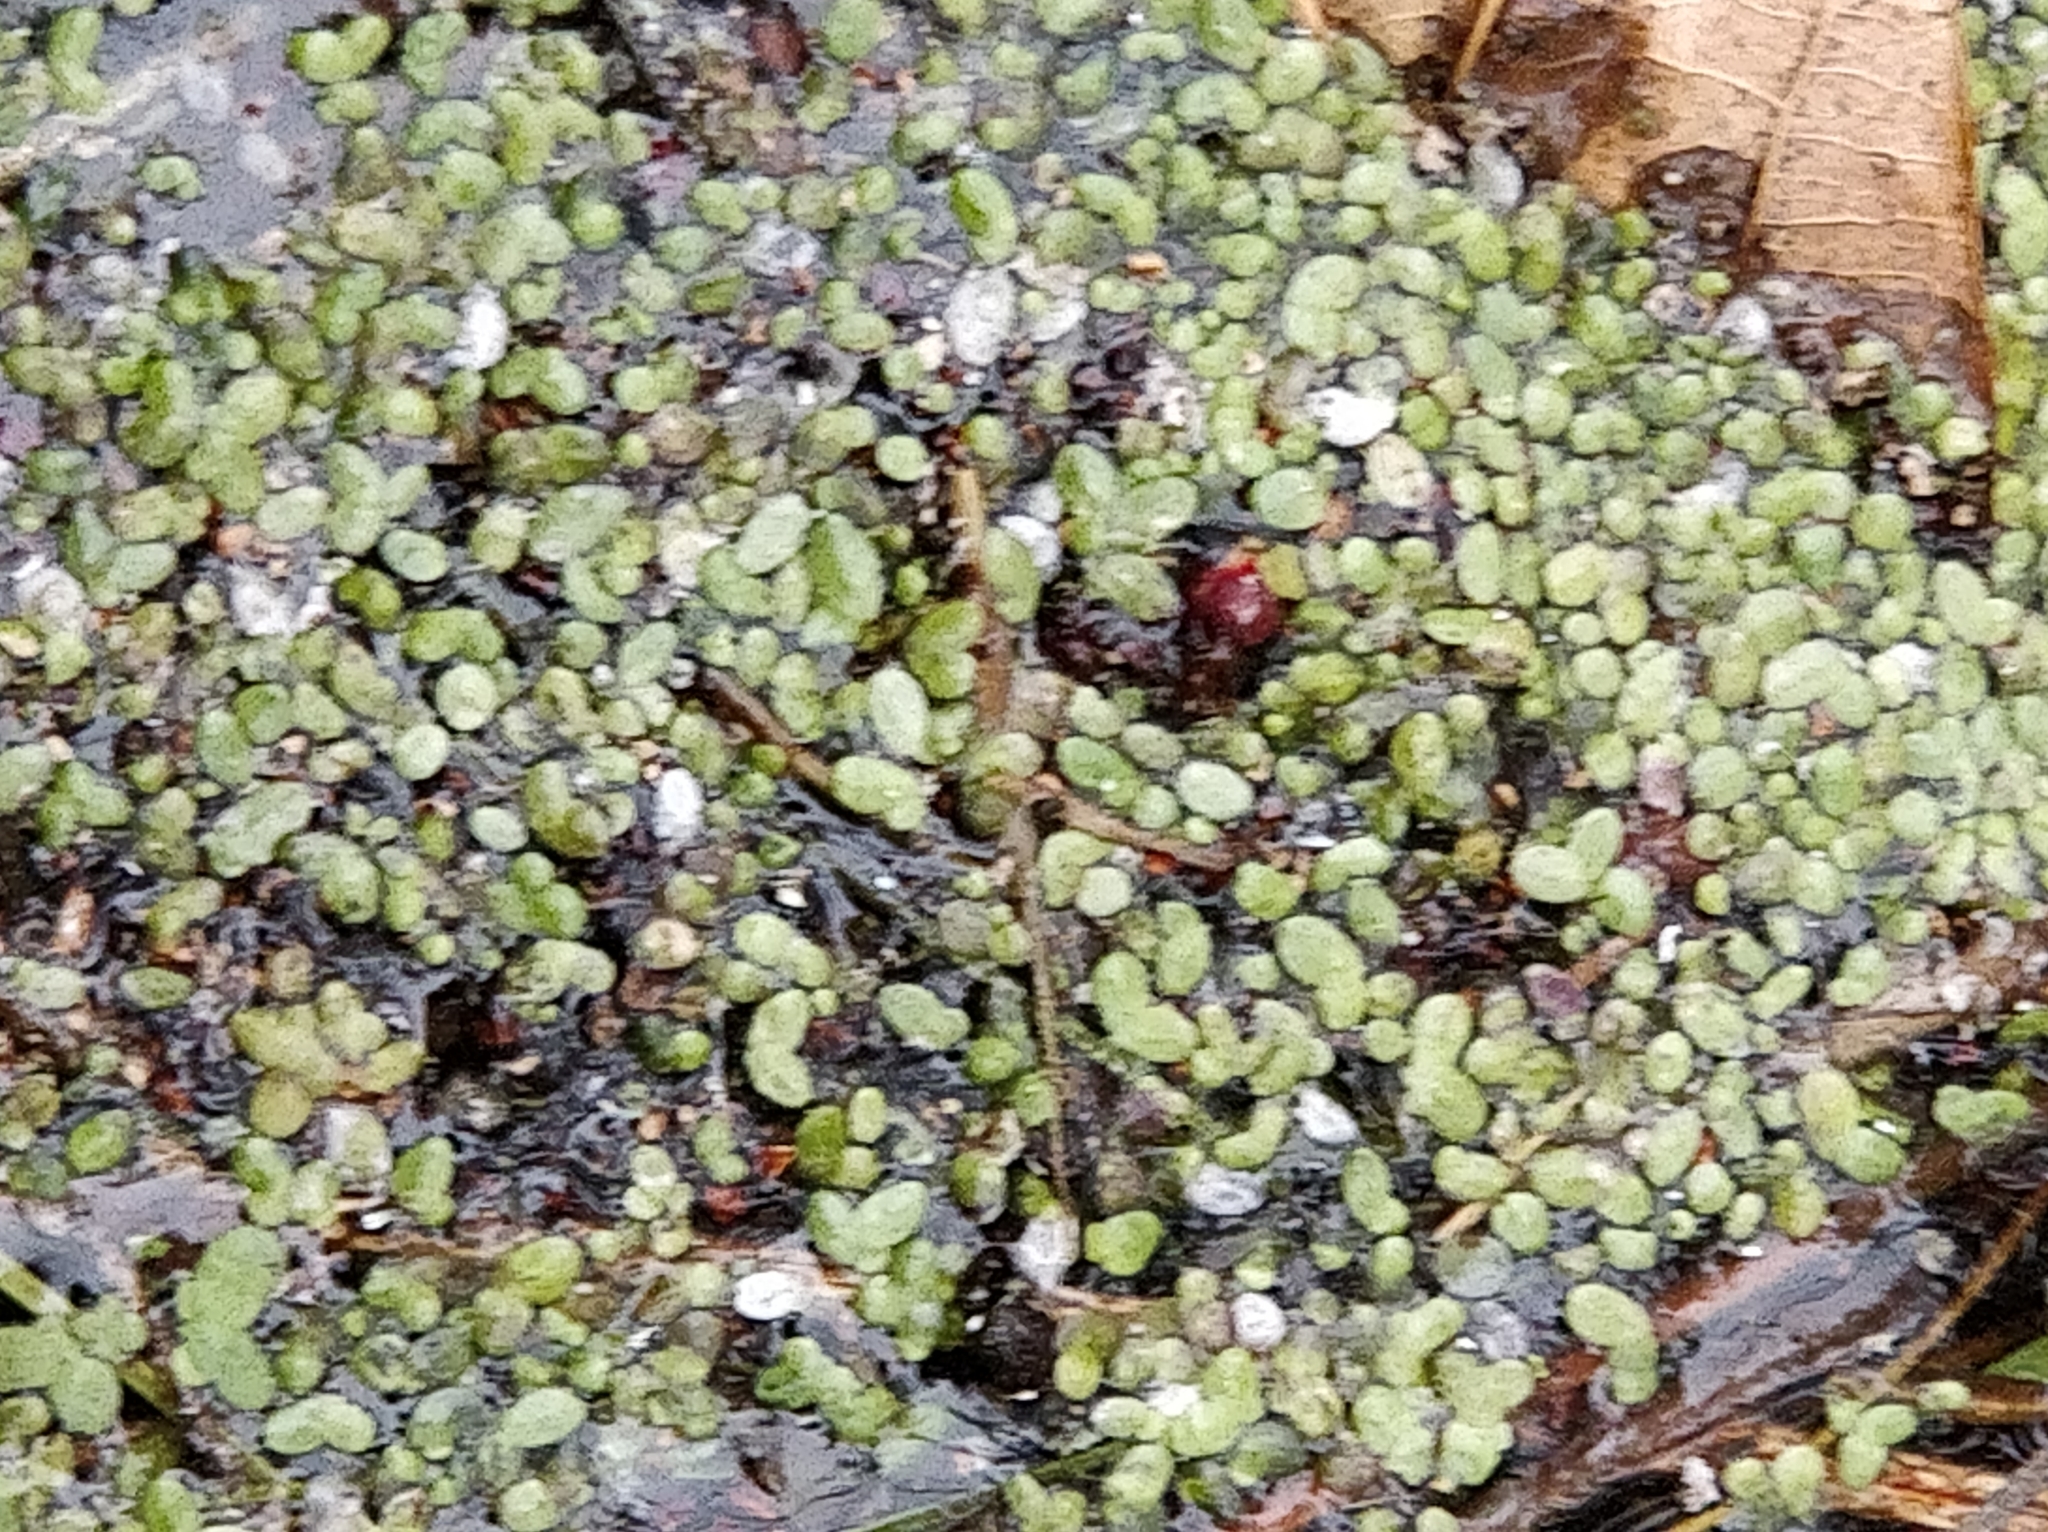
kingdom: Plantae
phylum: Tracheophyta
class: Liliopsida
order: Alismatales
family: Araceae
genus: Lemna
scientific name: Lemna minor
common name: Common duckweed
